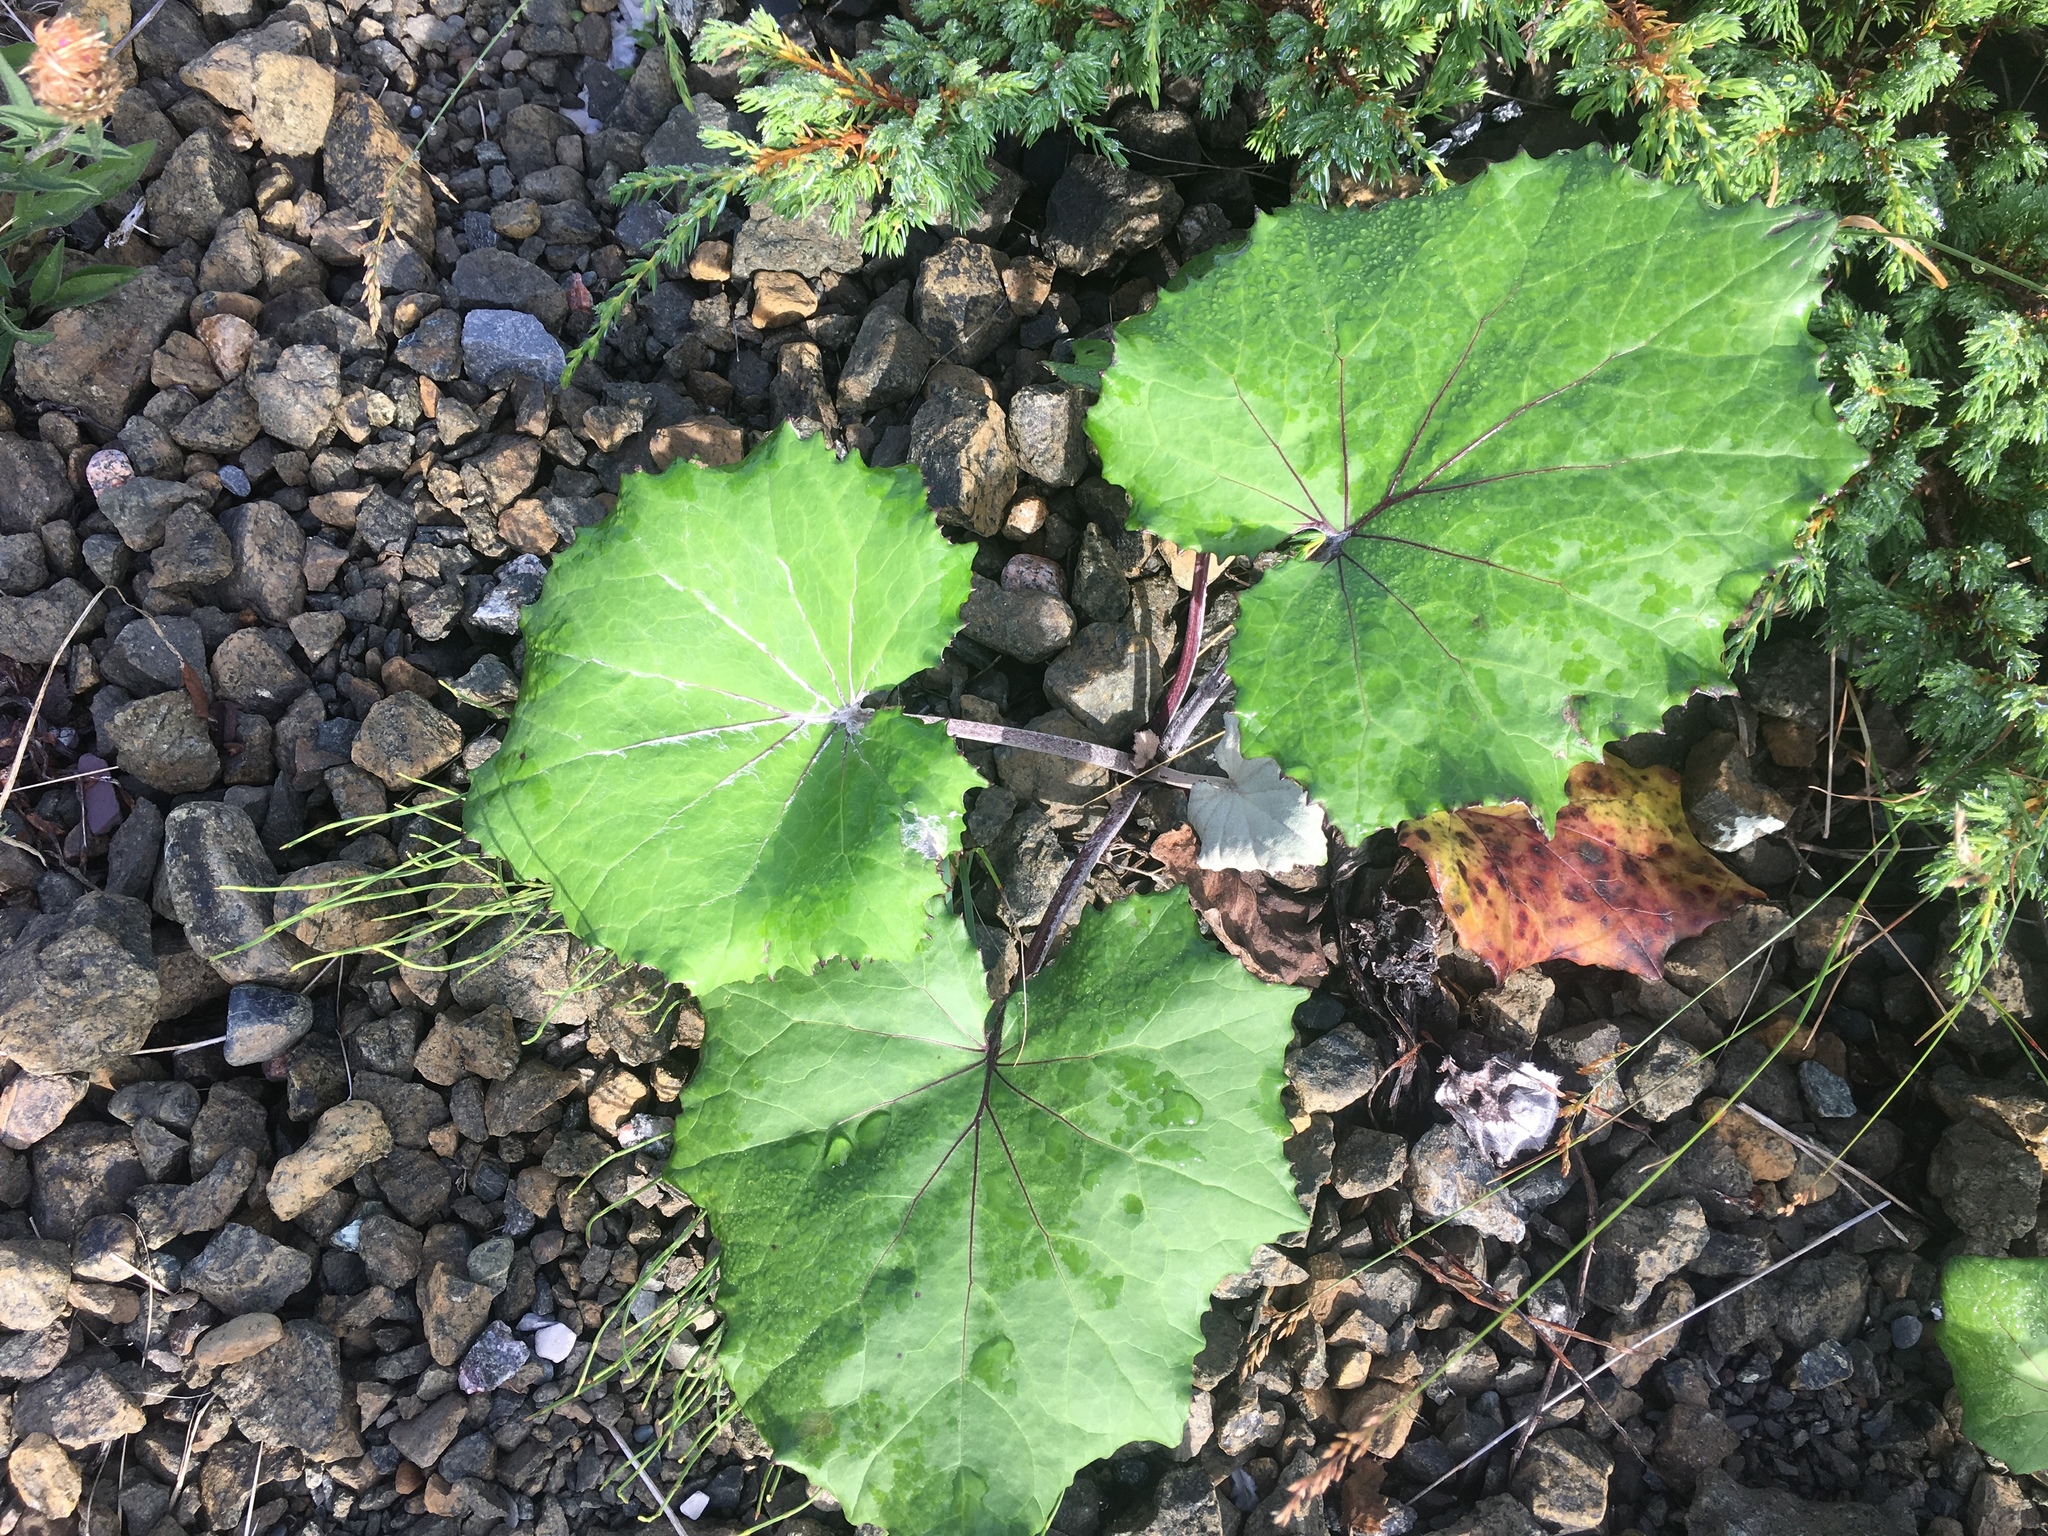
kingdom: Plantae
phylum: Tracheophyta
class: Magnoliopsida
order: Asterales
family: Asteraceae
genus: Tussilago
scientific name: Tussilago farfara
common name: Coltsfoot
